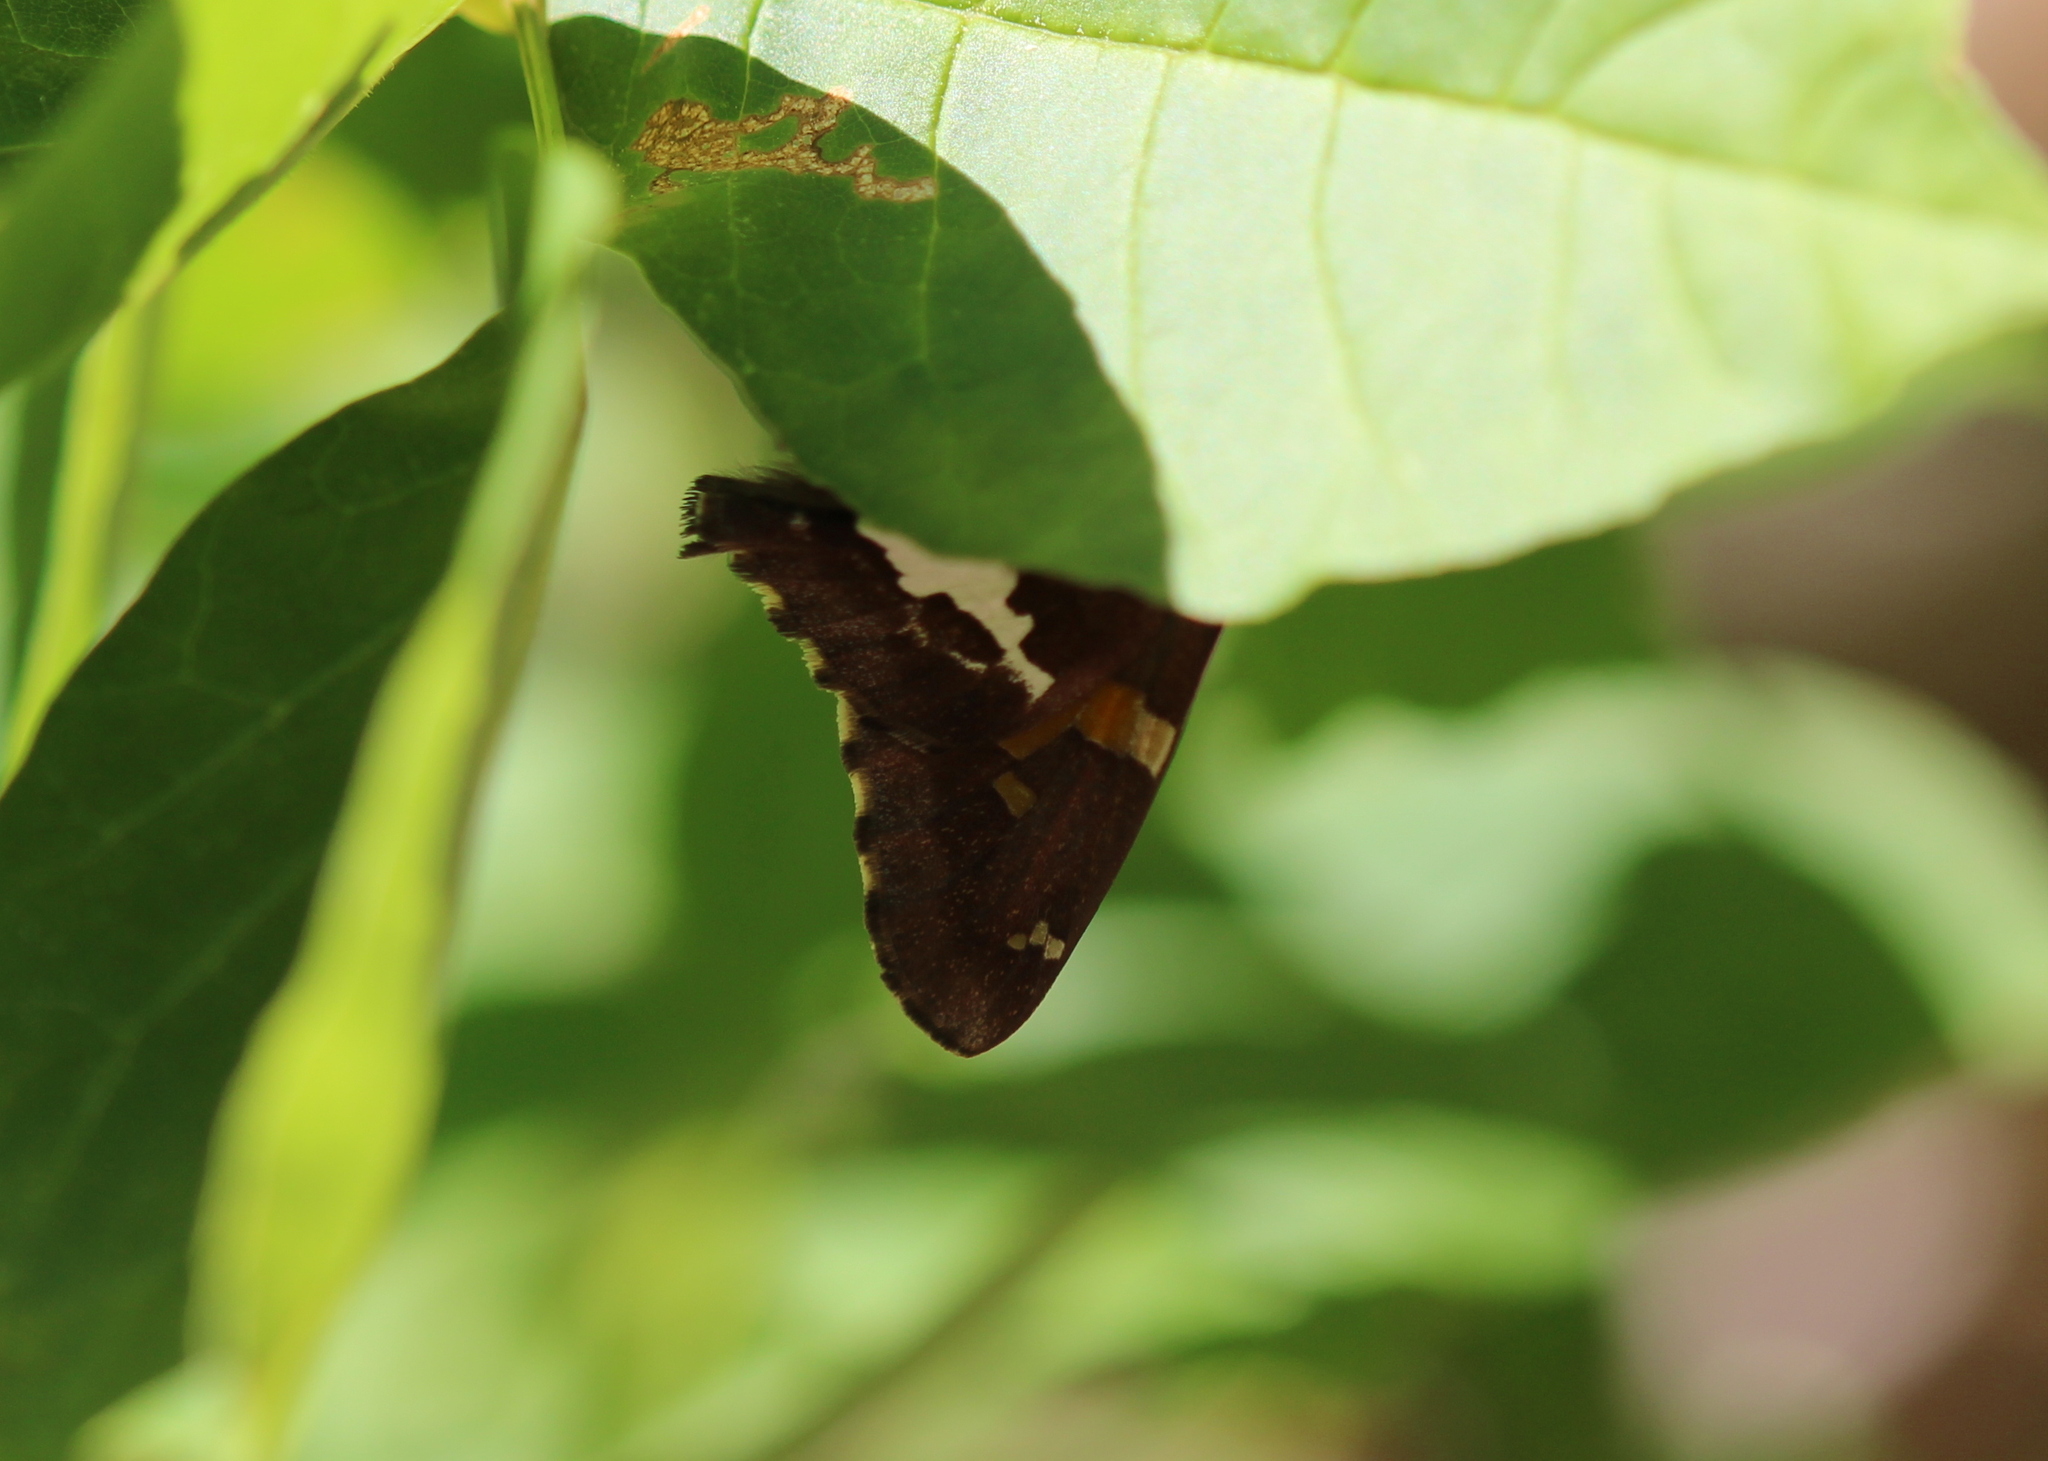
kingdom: Animalia
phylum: Arthropoda
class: Insecta
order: Lepidoptera
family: Hesperiidae
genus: Epargyreus
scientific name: Epargyreus clarus
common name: Silver-spotted skipper
